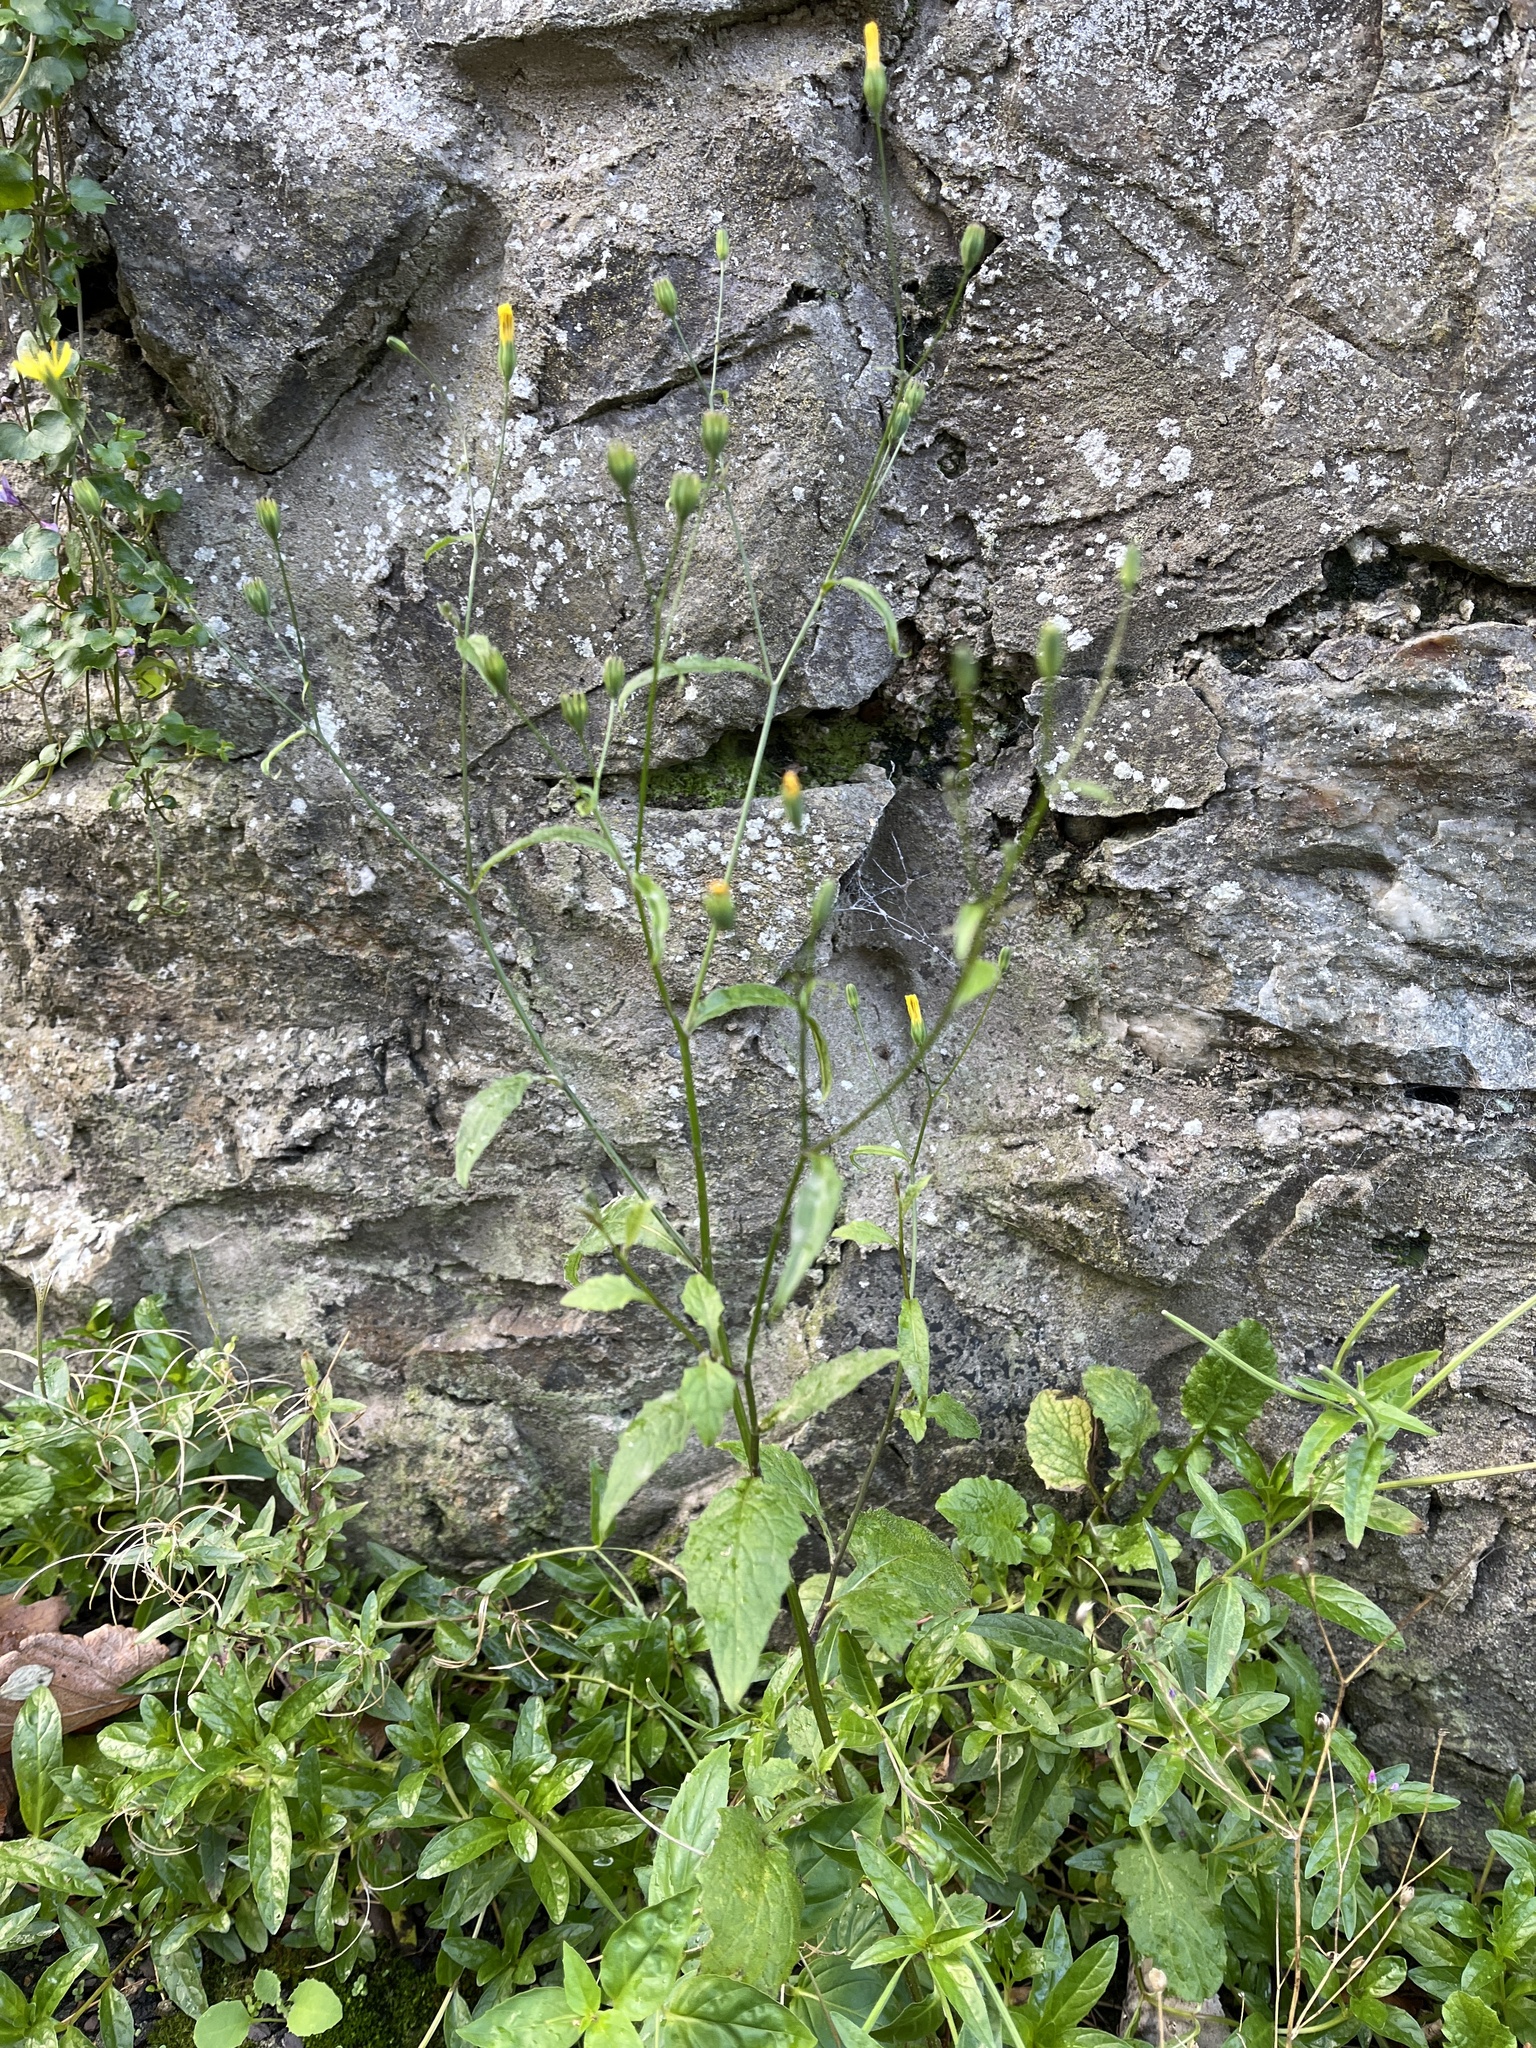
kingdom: Plantae
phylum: Tracheophyta
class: Magnoliopsida
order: Asterales
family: Asteraceae
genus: Lapsana
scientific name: Lapsana communis
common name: Nipplewort
